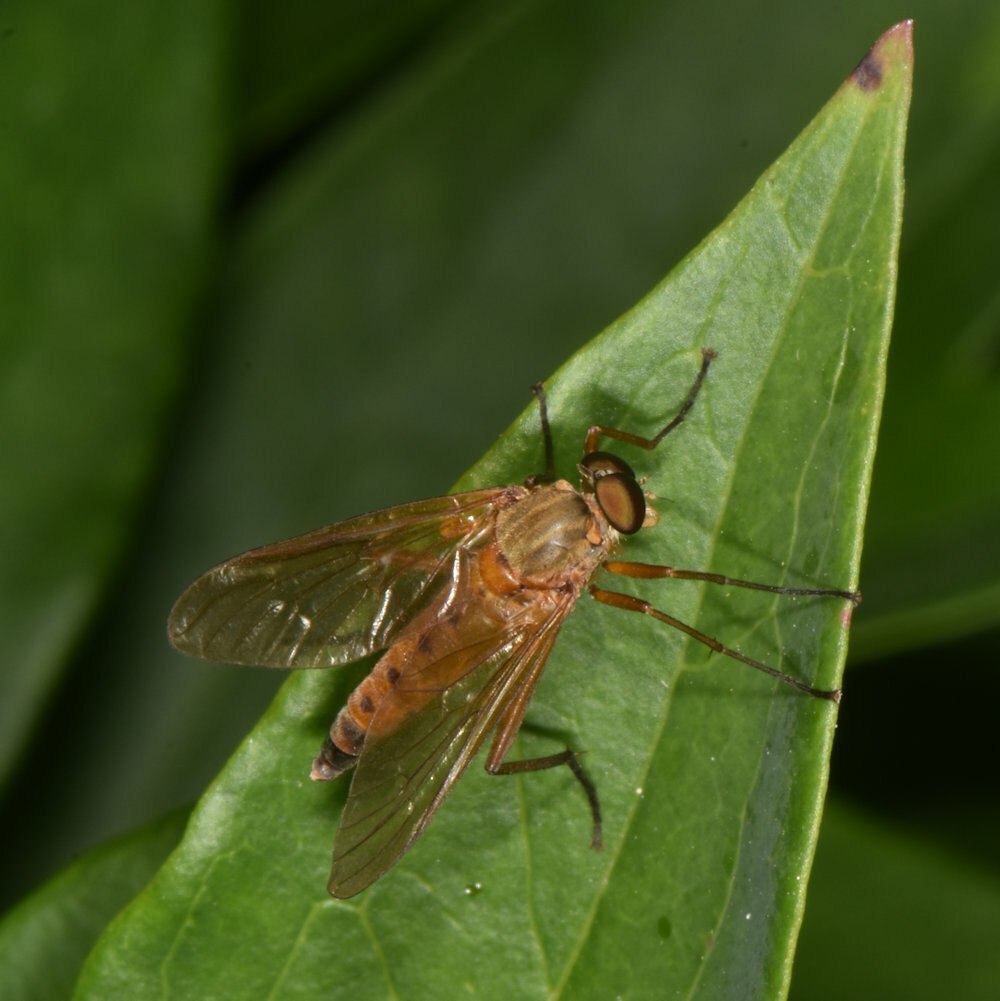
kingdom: Animalia
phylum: Arthropoda
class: Insecta
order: Diptera
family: Rhagionidae
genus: Rhagio
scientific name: Rhagio tringaria
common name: Marsh snipefly
